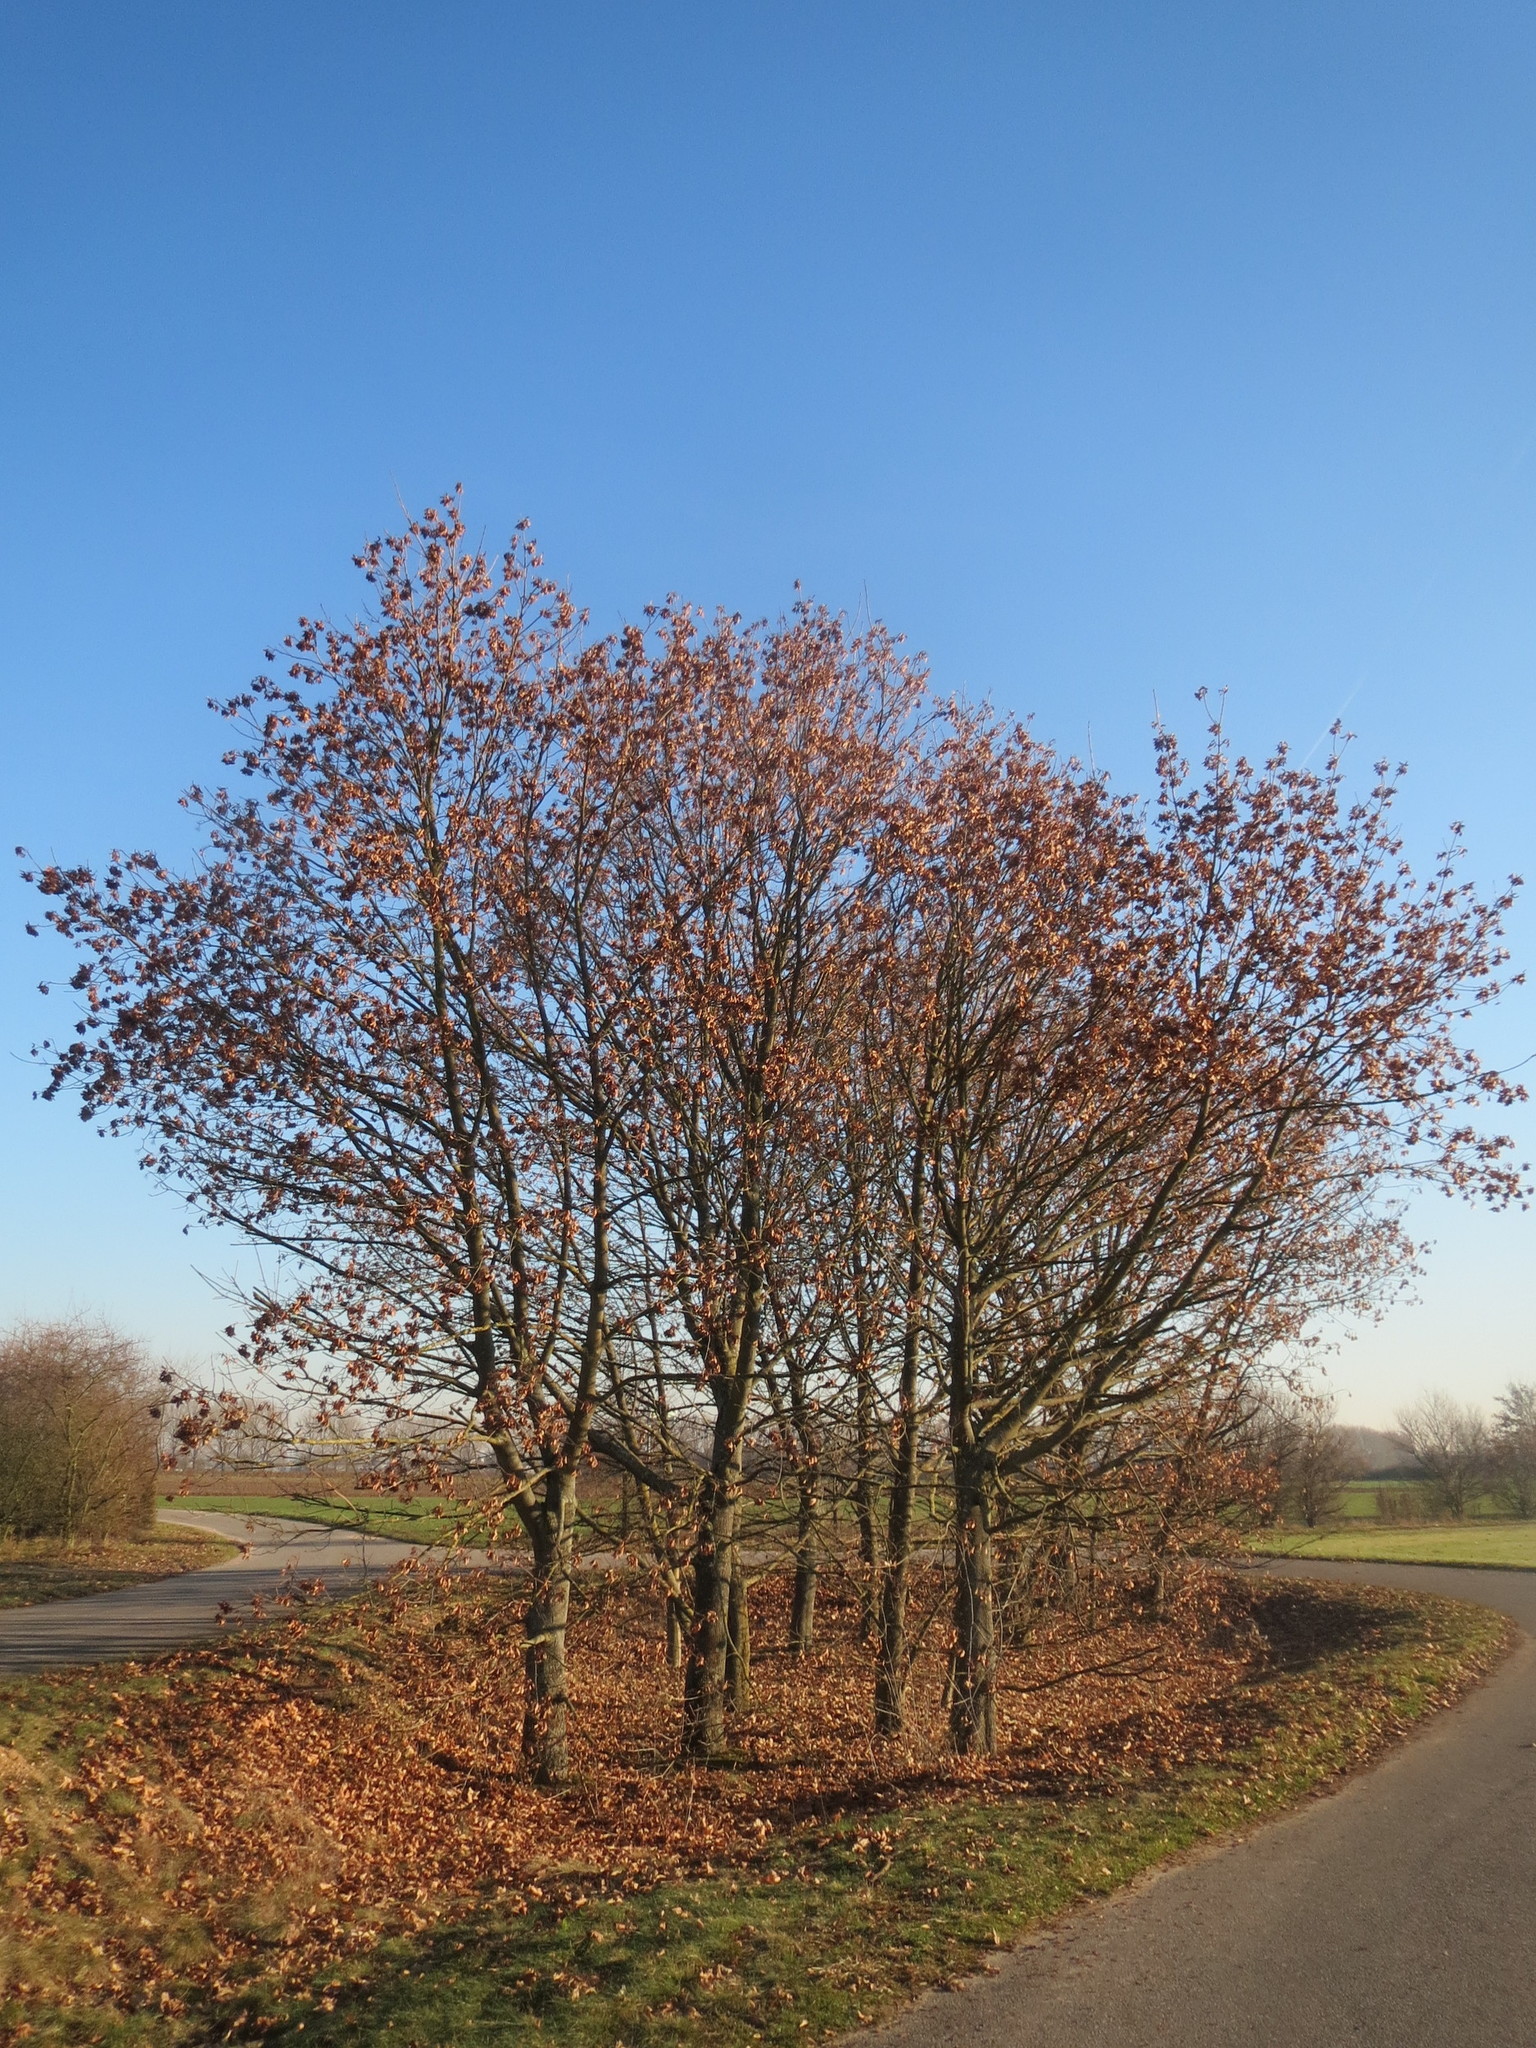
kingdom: Plantae
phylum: Tracheophyta
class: Magnoliopsida
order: Sapindales
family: Sapindaceae
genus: Acer
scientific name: Acer platanoides
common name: Norway maple
